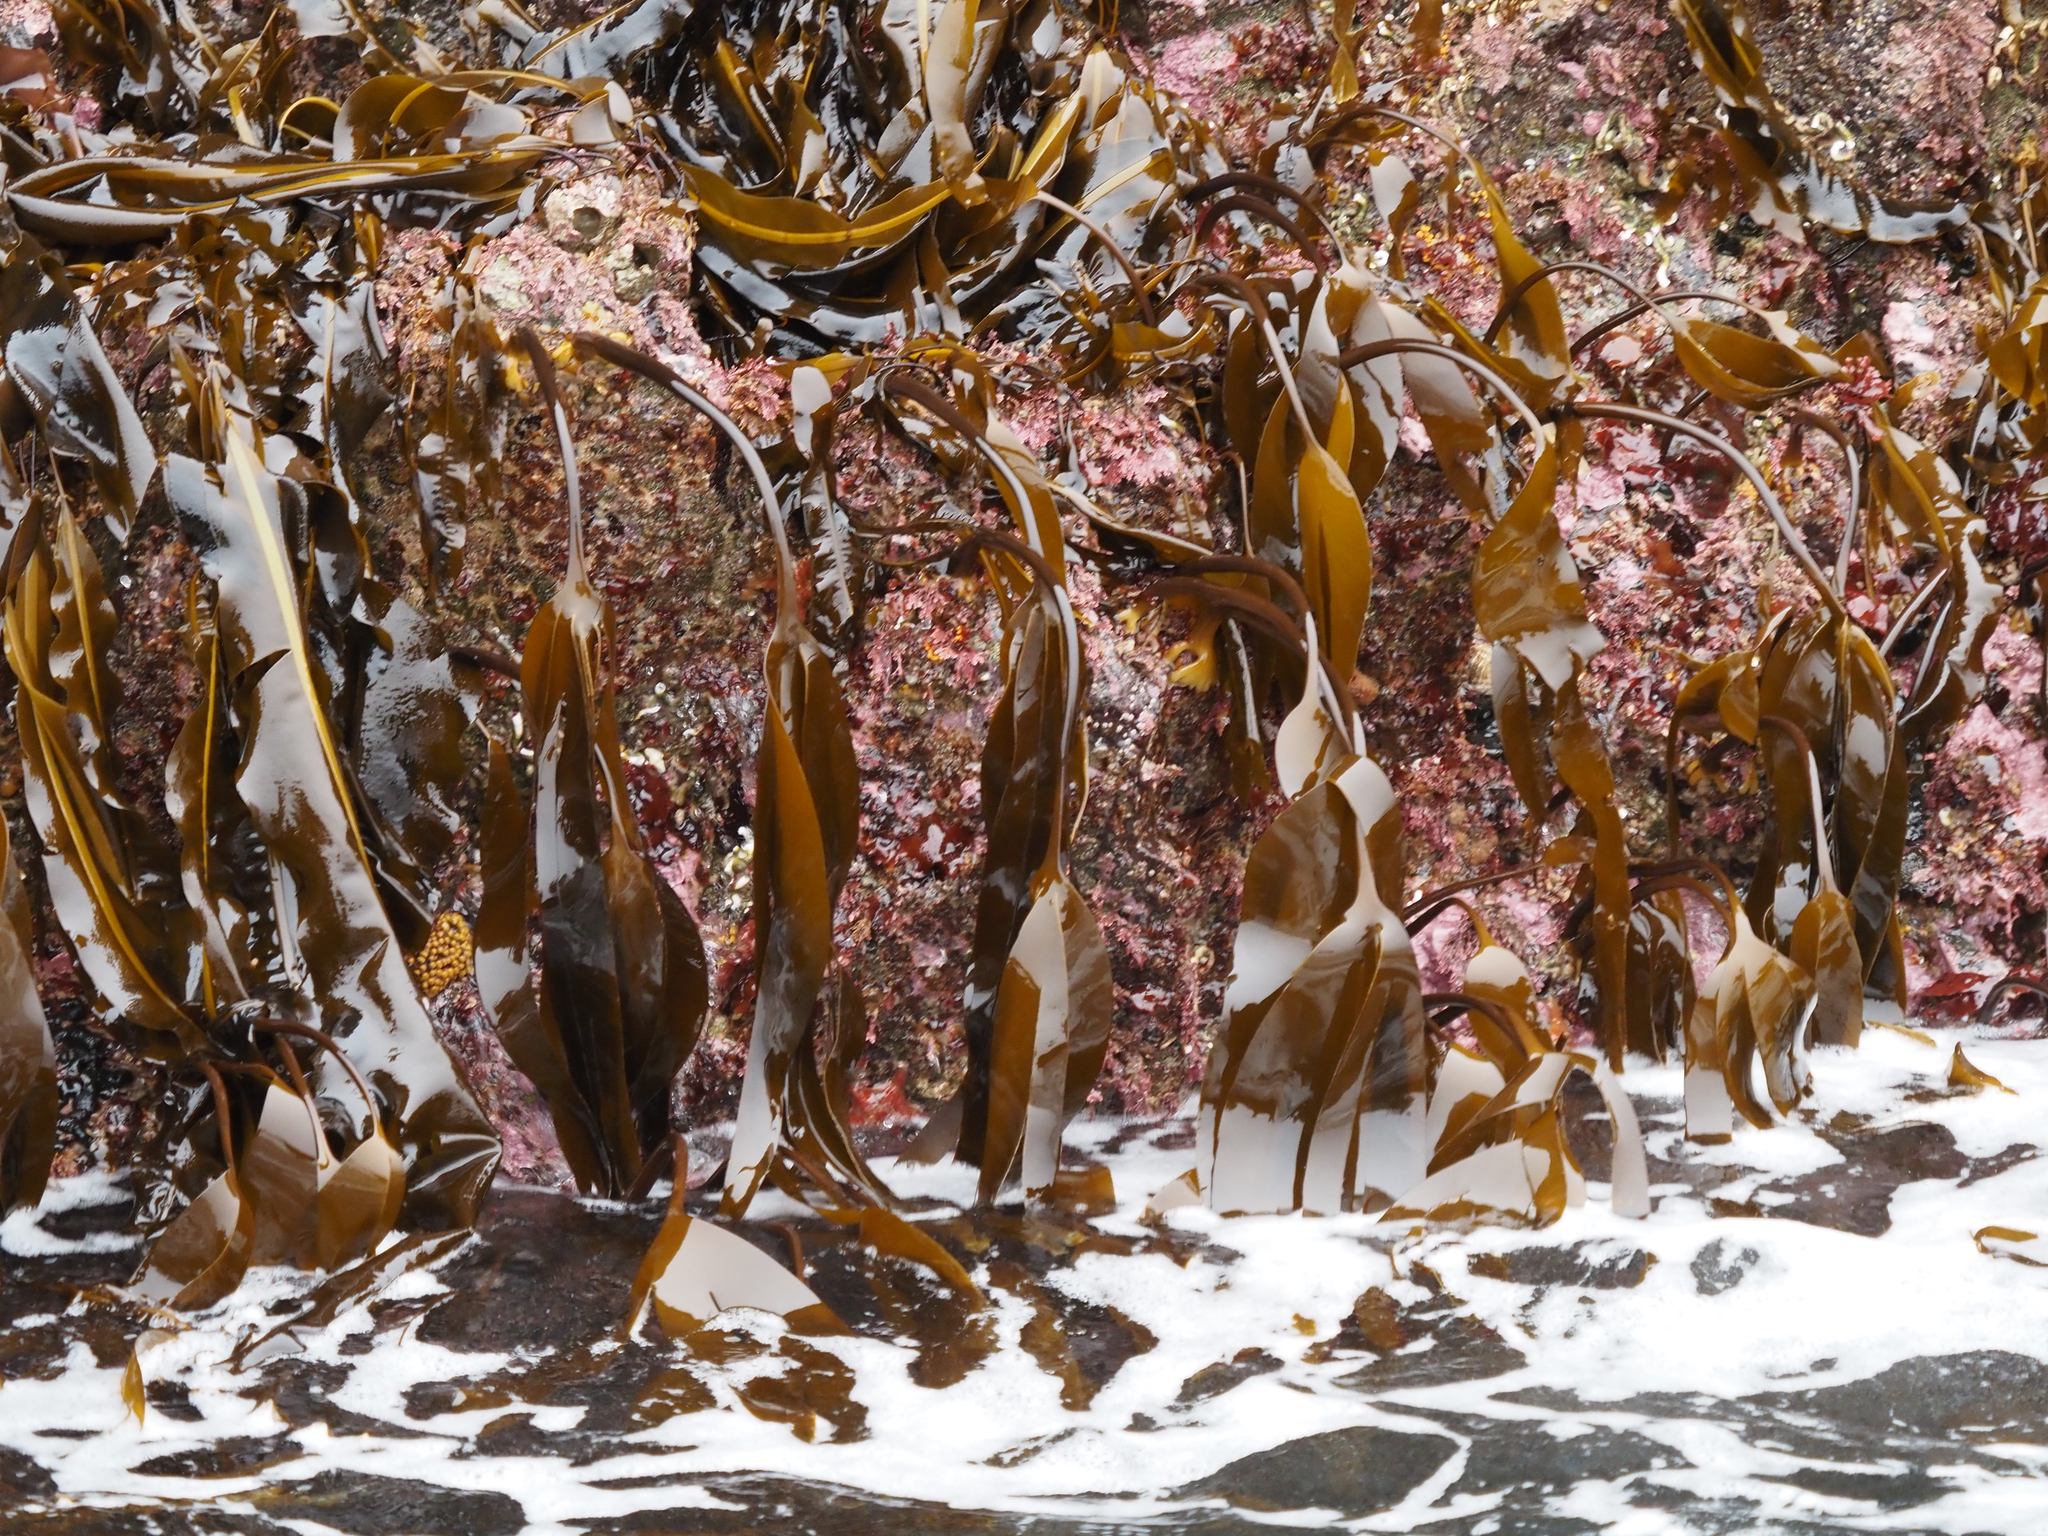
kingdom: Chromista
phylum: Ochrophyta
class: Phaeophyceae
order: Laminariales
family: Laminariaceae
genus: Laminaria
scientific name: Laminaria setchellii
